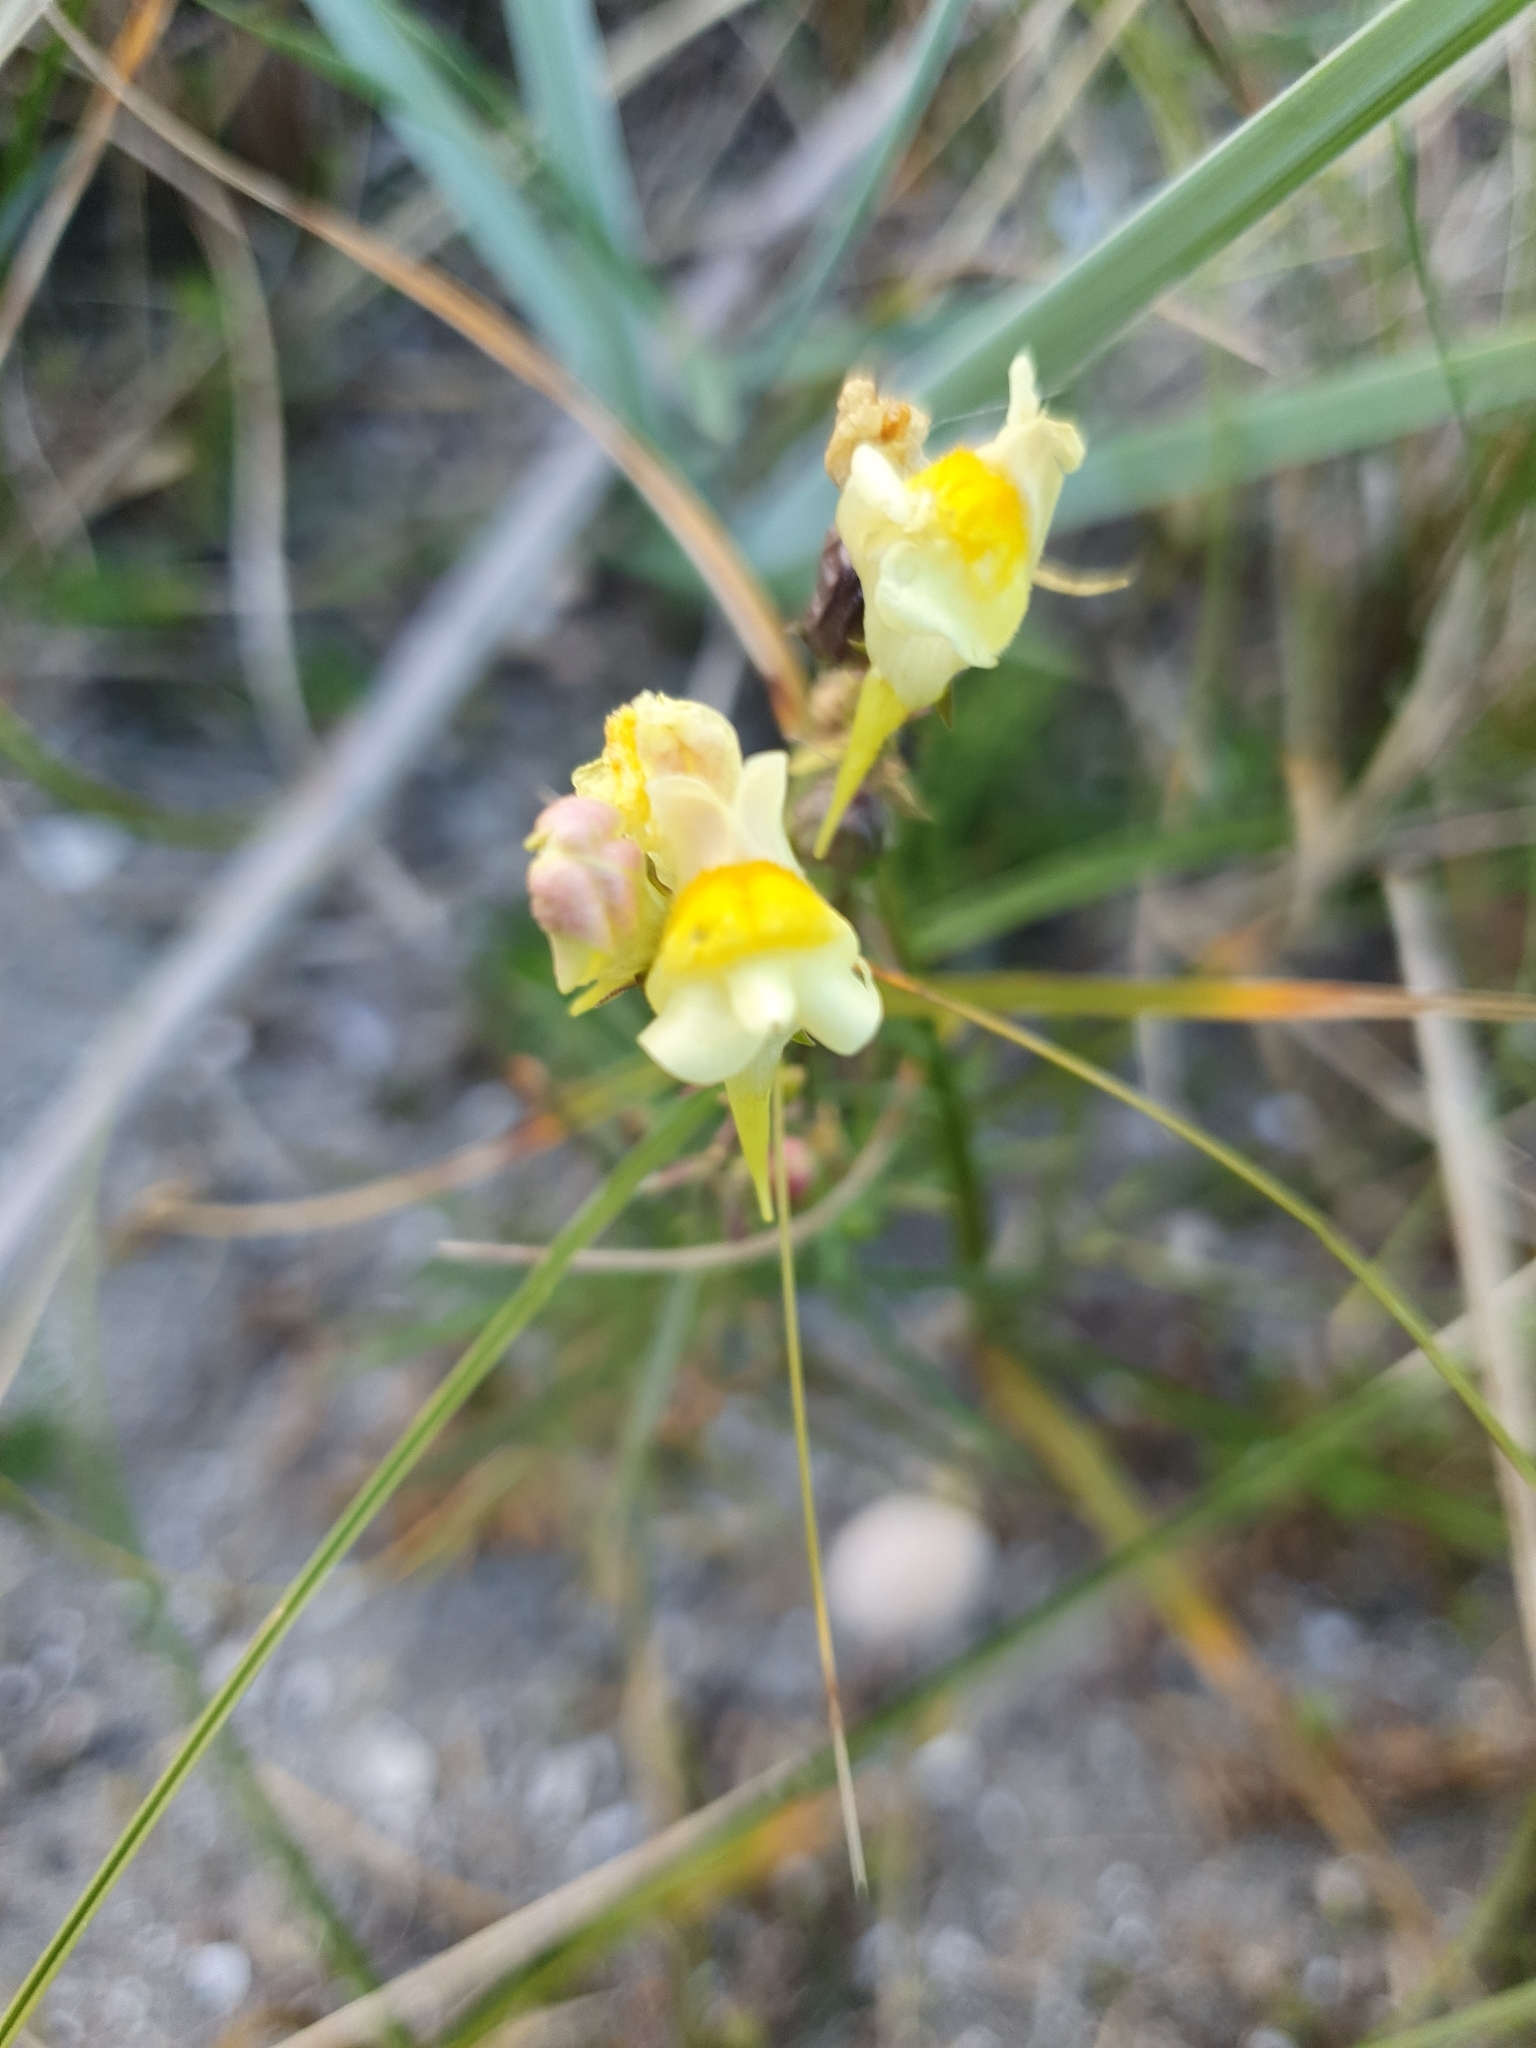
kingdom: Plantae
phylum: Tracheophyta
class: Magnoliopsida
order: Lamiales
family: Plantaginaceae
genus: Linaria
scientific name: Linaria vulgaris
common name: Butter and eggs
